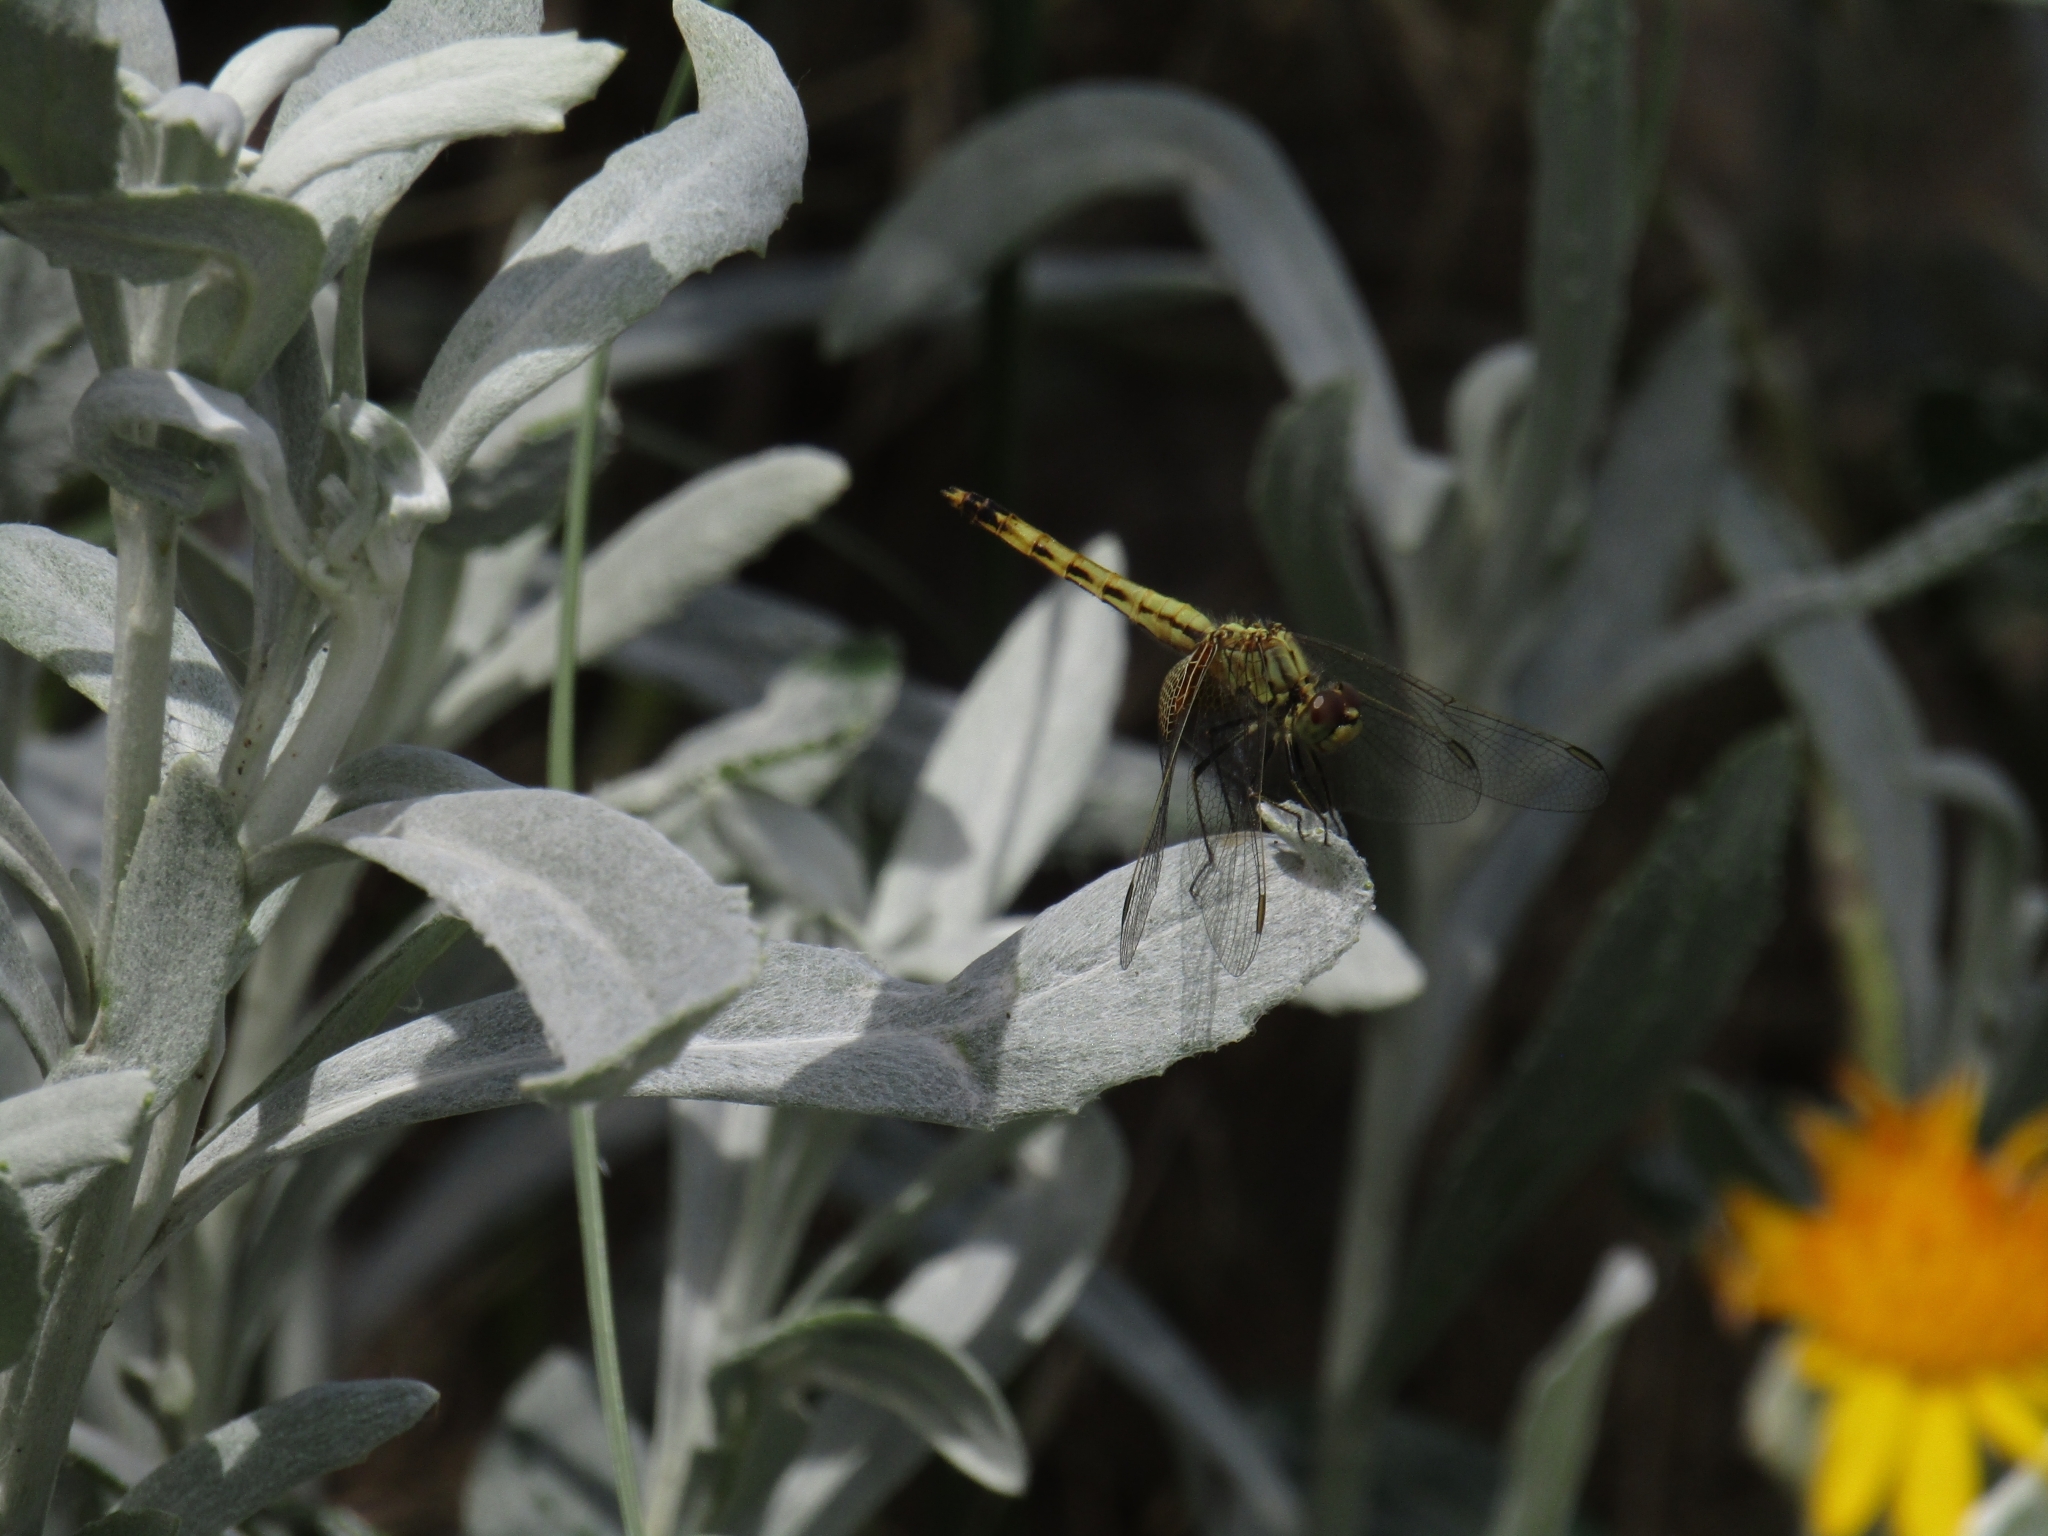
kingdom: Animalia
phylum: Arthropoda
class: Insecta
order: Odonata
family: Libellulidae
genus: Erythrodiplax
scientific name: Erythrodiplax corallina
